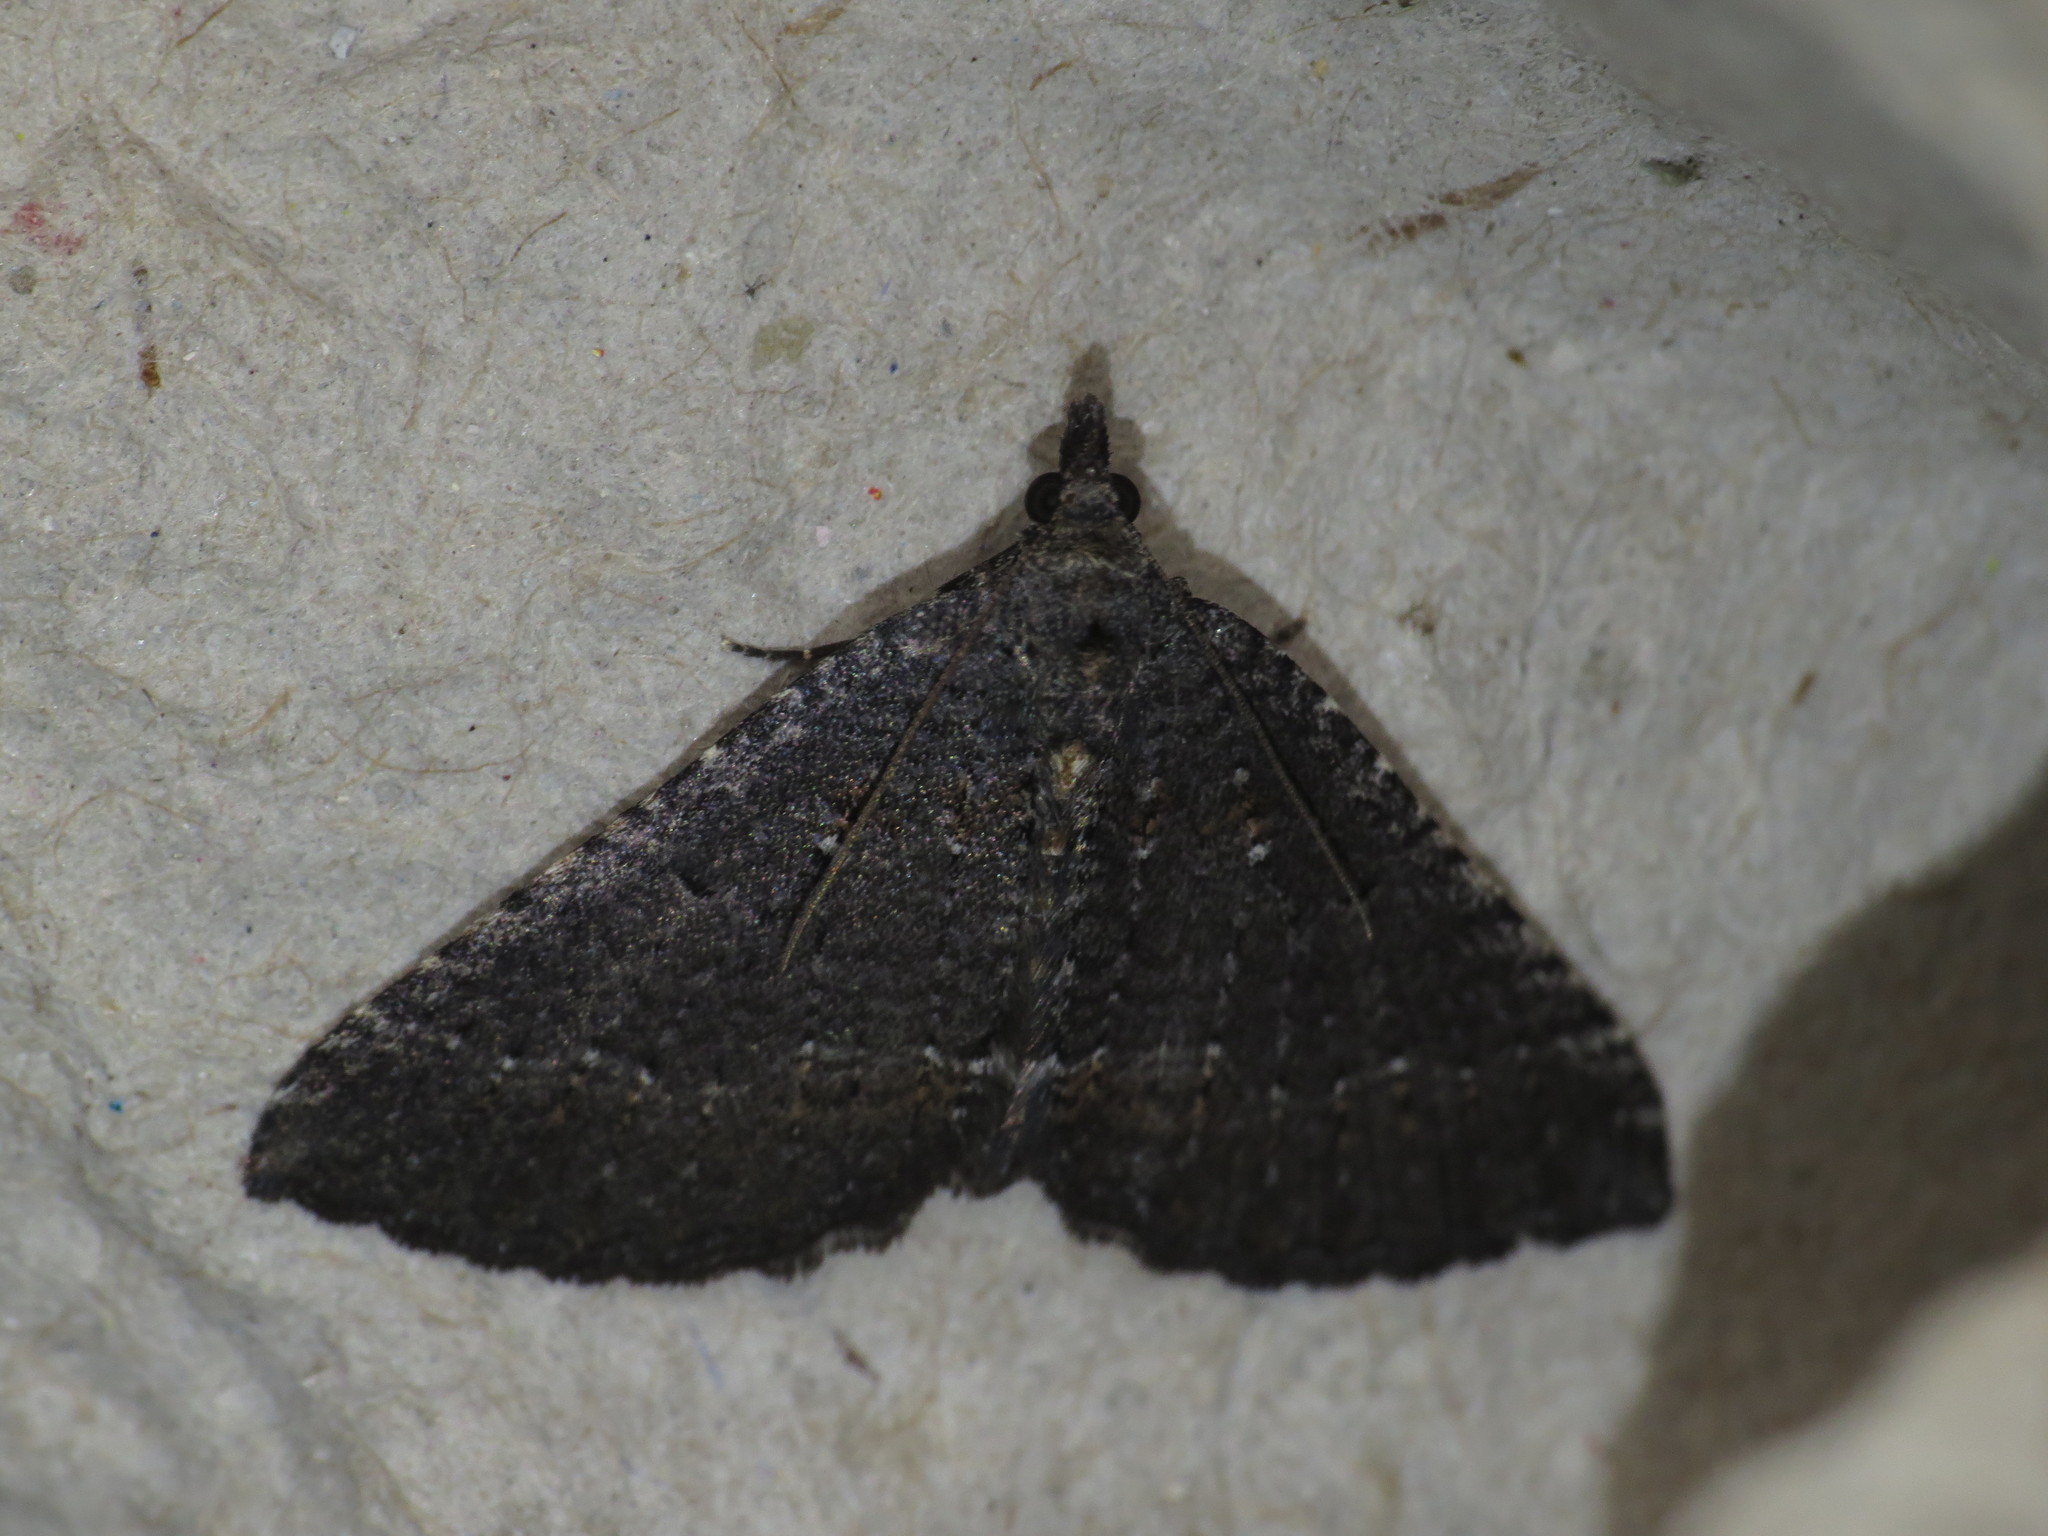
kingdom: Animalia
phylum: Arthropoda
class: Insecta
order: Lepidoptera
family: Geometridae
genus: Chrysolarentia
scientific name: Chrysolarentia trygodes
